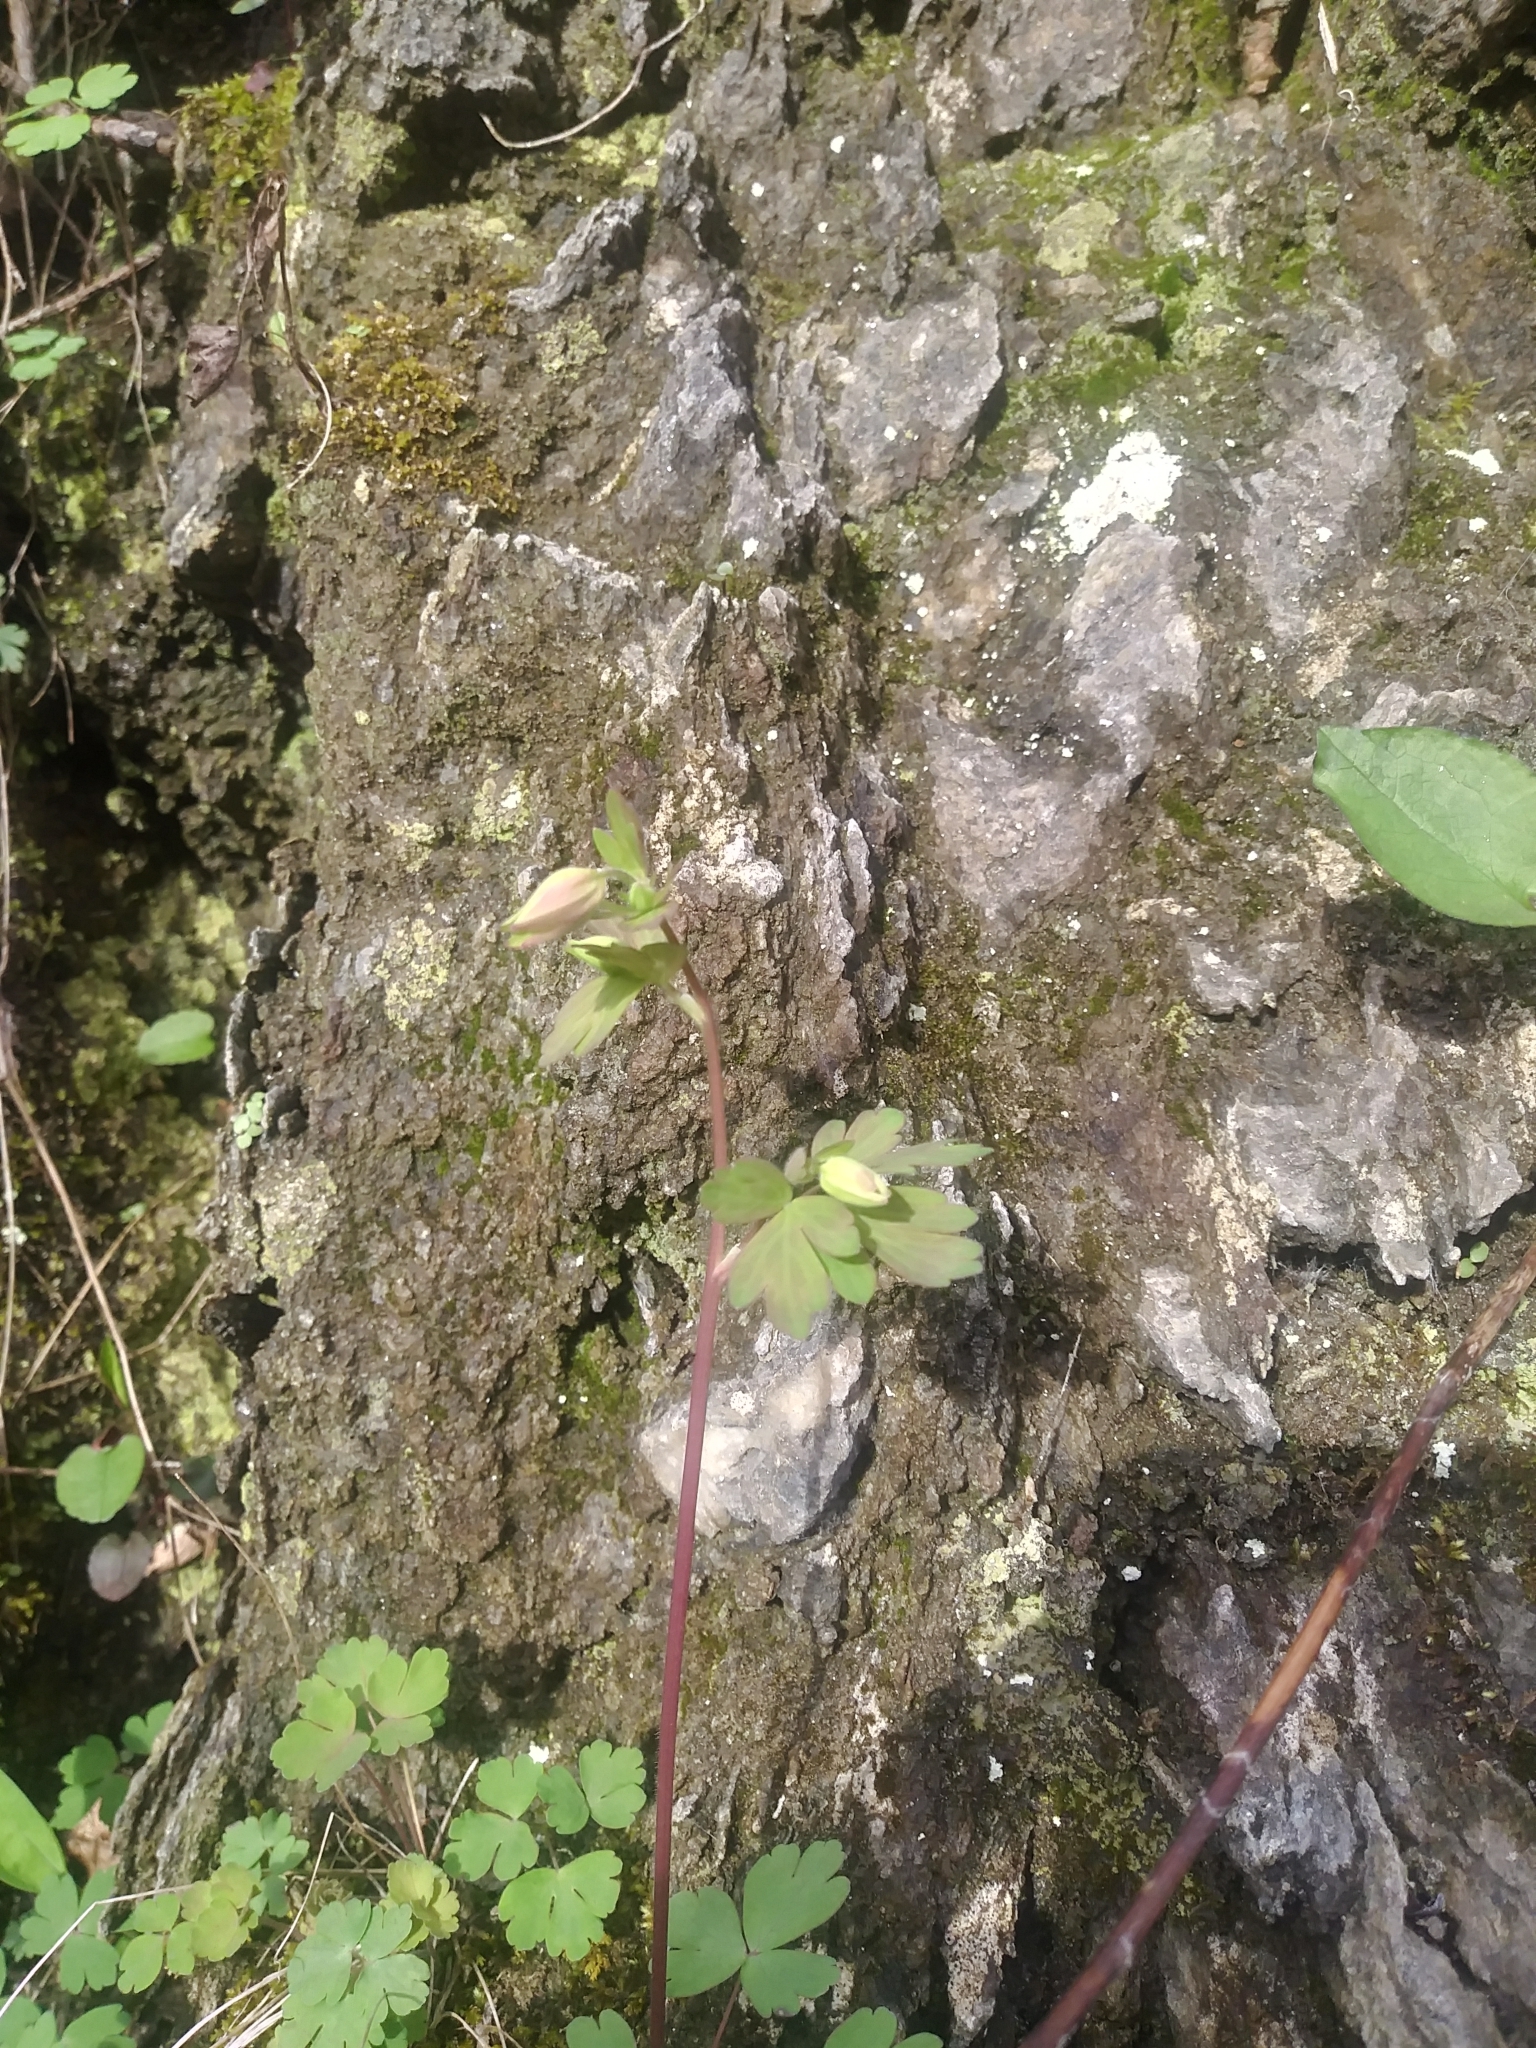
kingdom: Plantae
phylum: Tracheophyta
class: Magnoliopsida
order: Ranunculales
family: Ranunculaceae
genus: Aquilegia
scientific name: Aquilegia canadensis
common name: American columbine
